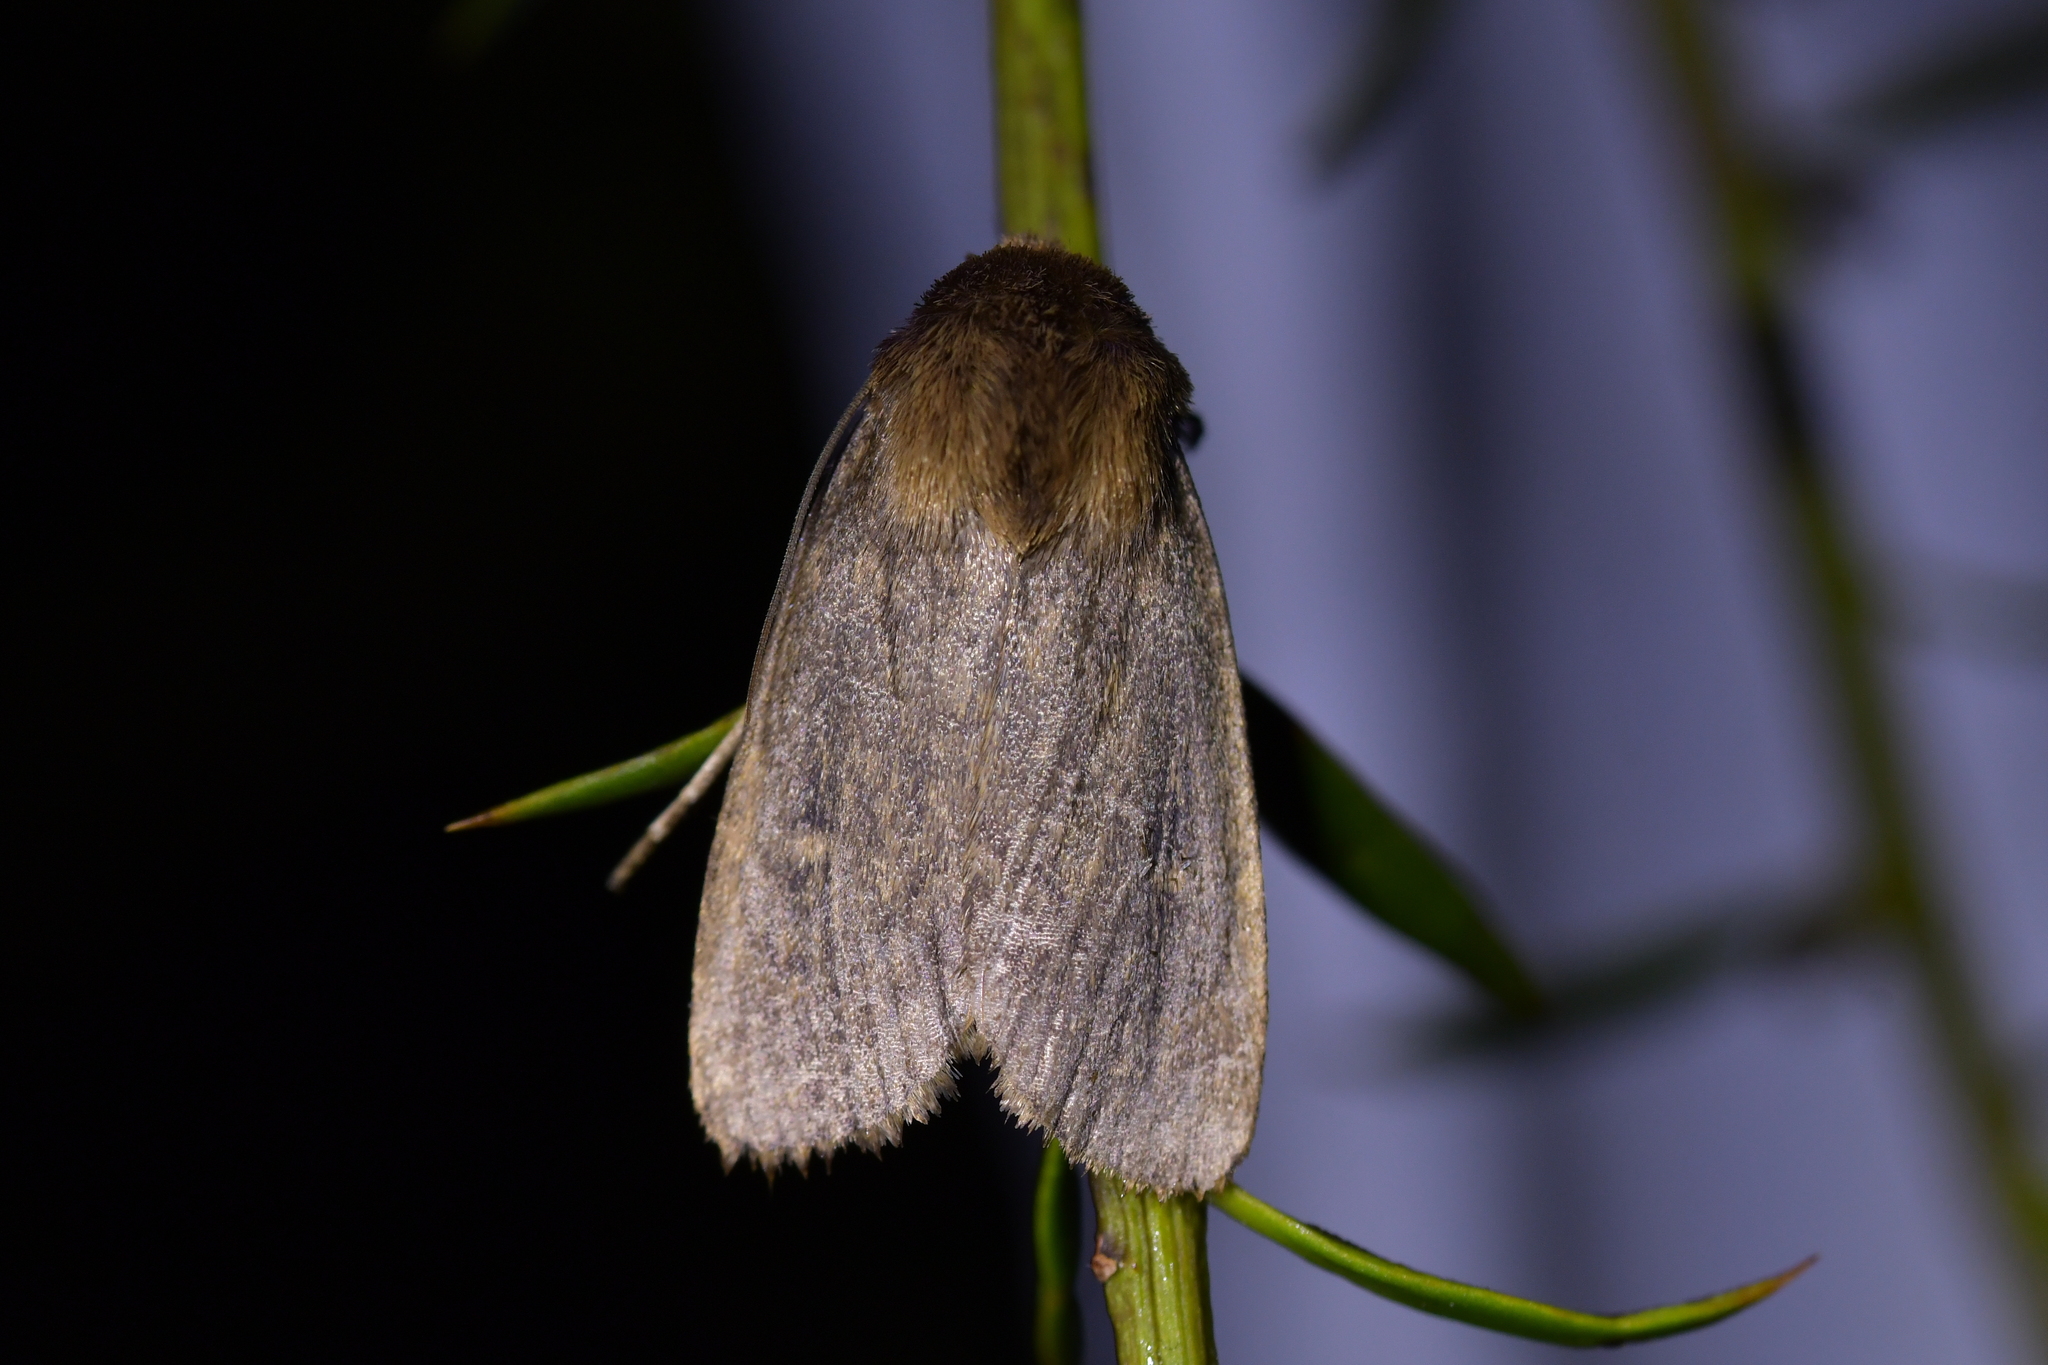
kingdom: Animalia
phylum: Arthropoda
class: Insecta
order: Lepidoptera
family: Noctuidae
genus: Bityla
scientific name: Bityla defigurata
